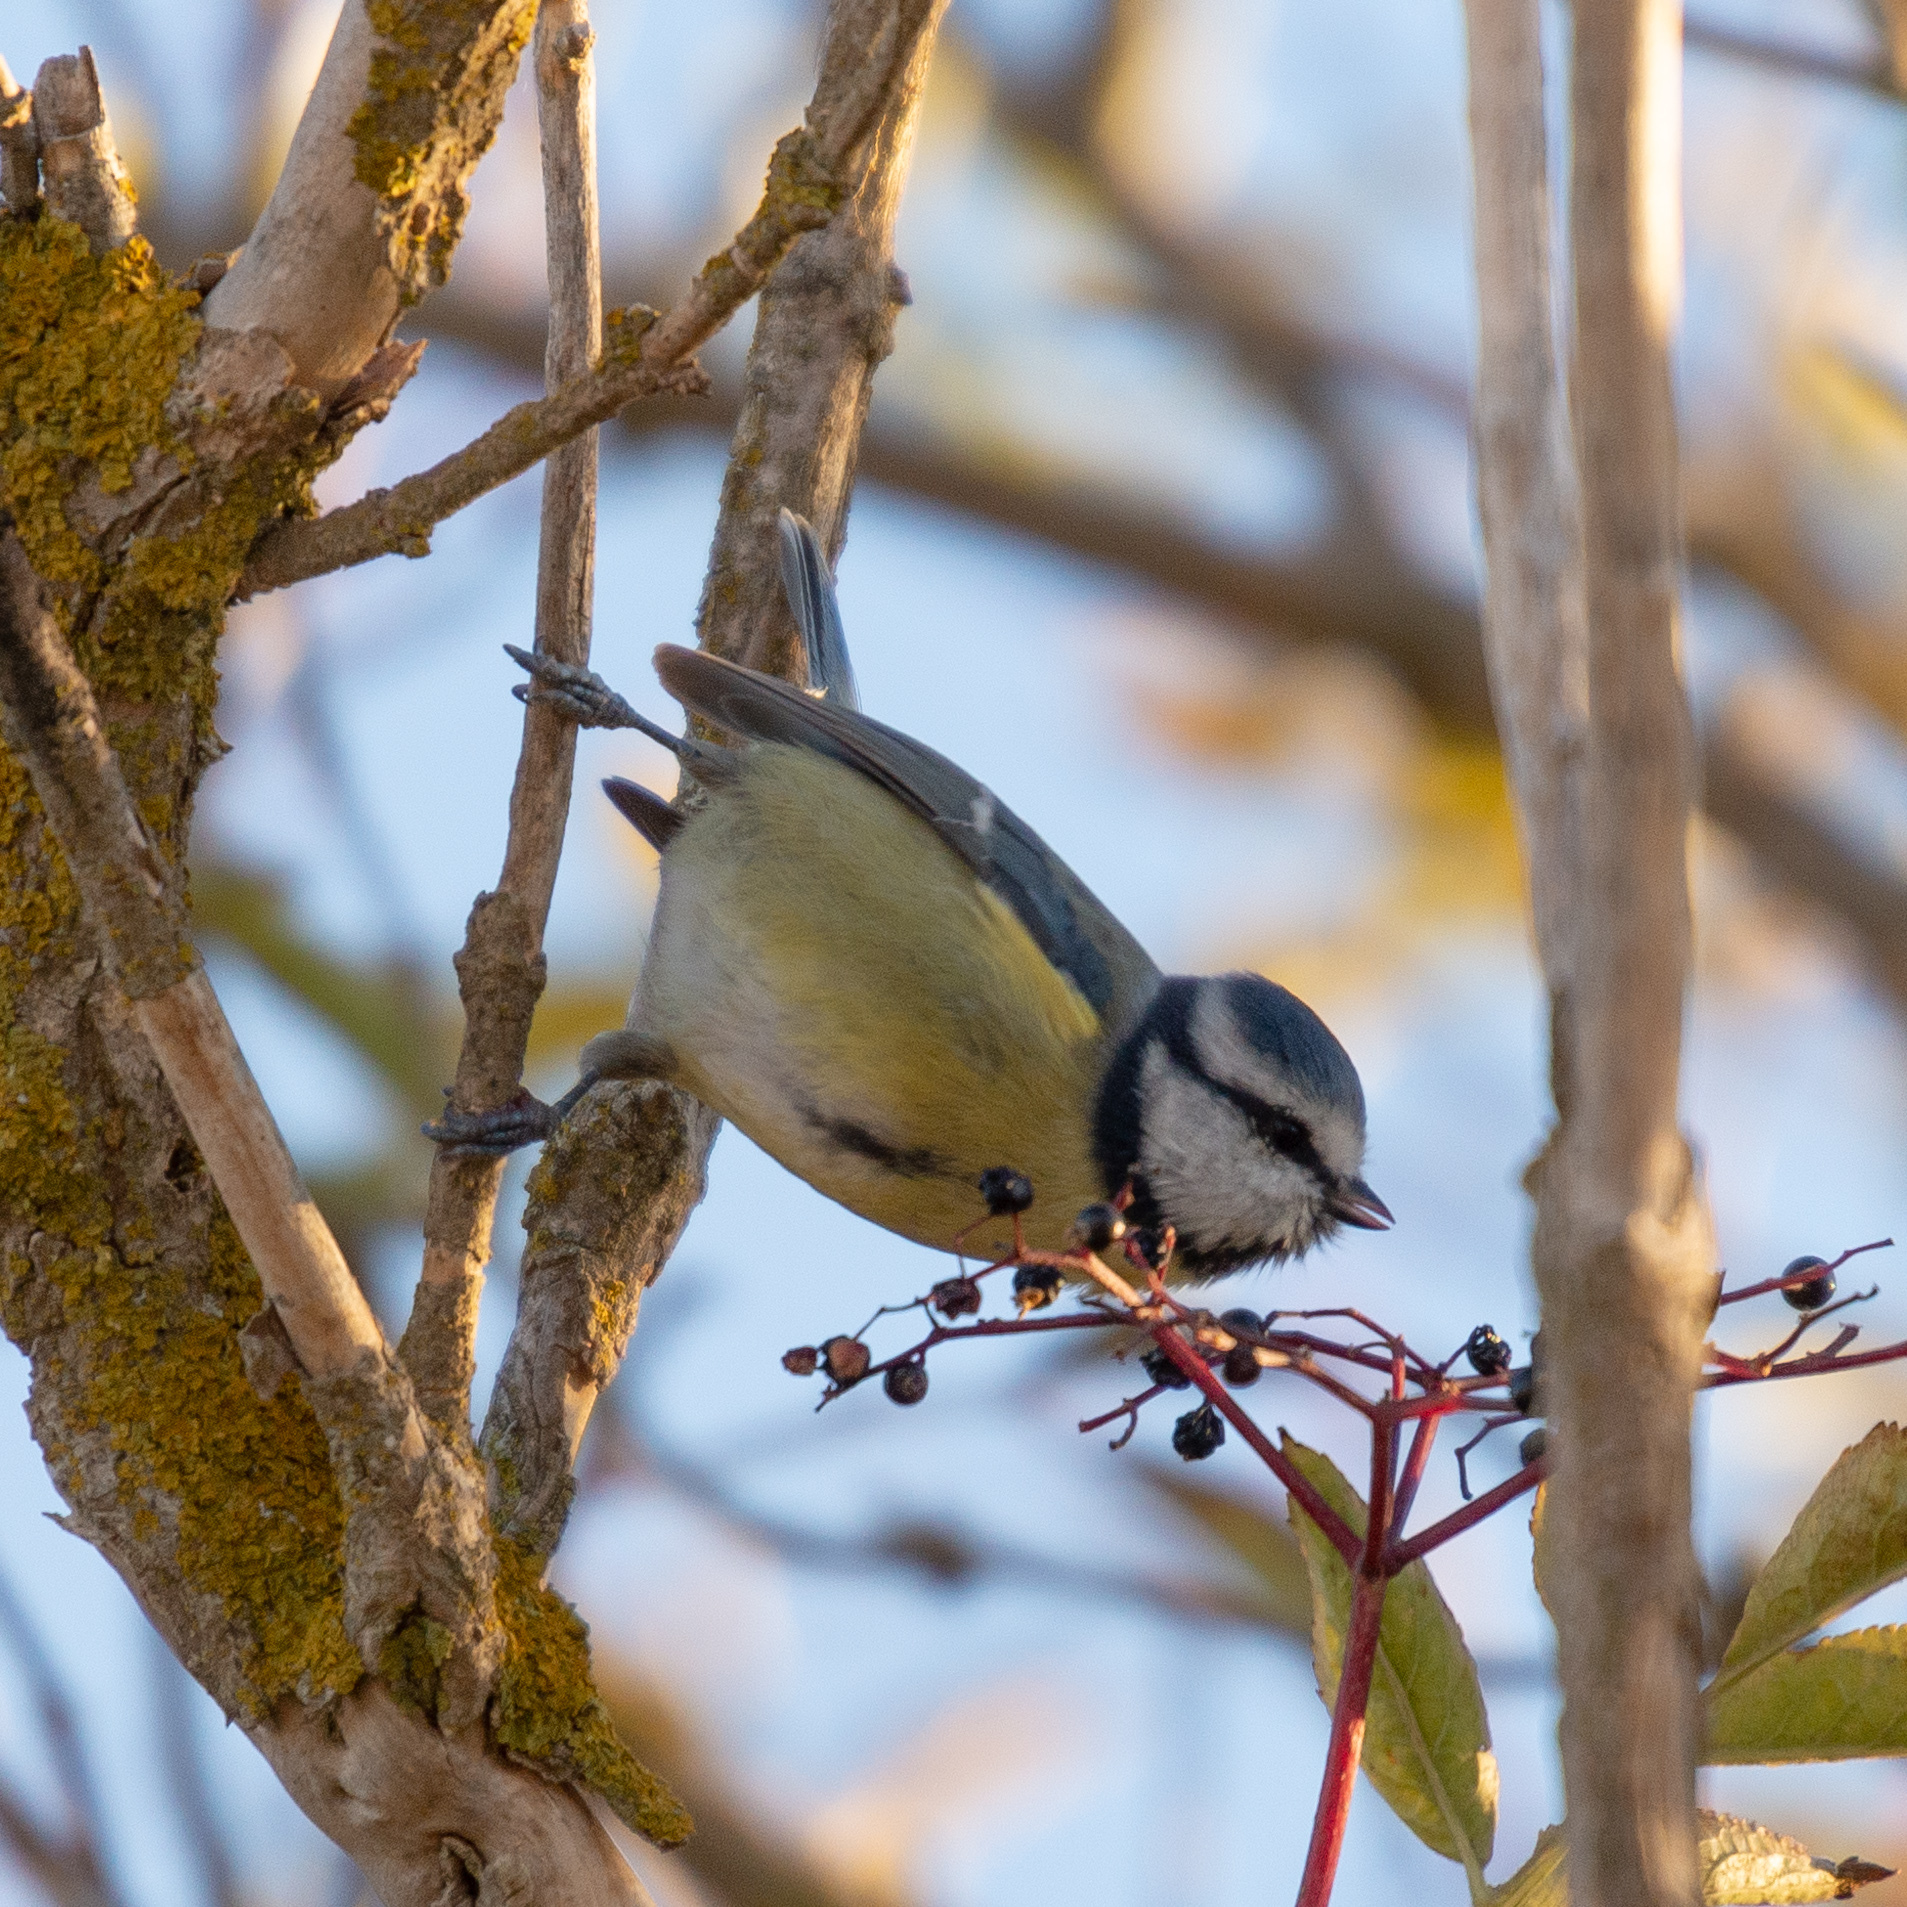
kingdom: Animalia
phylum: Chordata
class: Aves
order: Passeriformes
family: Paridae
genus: Cyanistes
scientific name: Cyanistes caeruleus
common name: Eurasian blue tit
